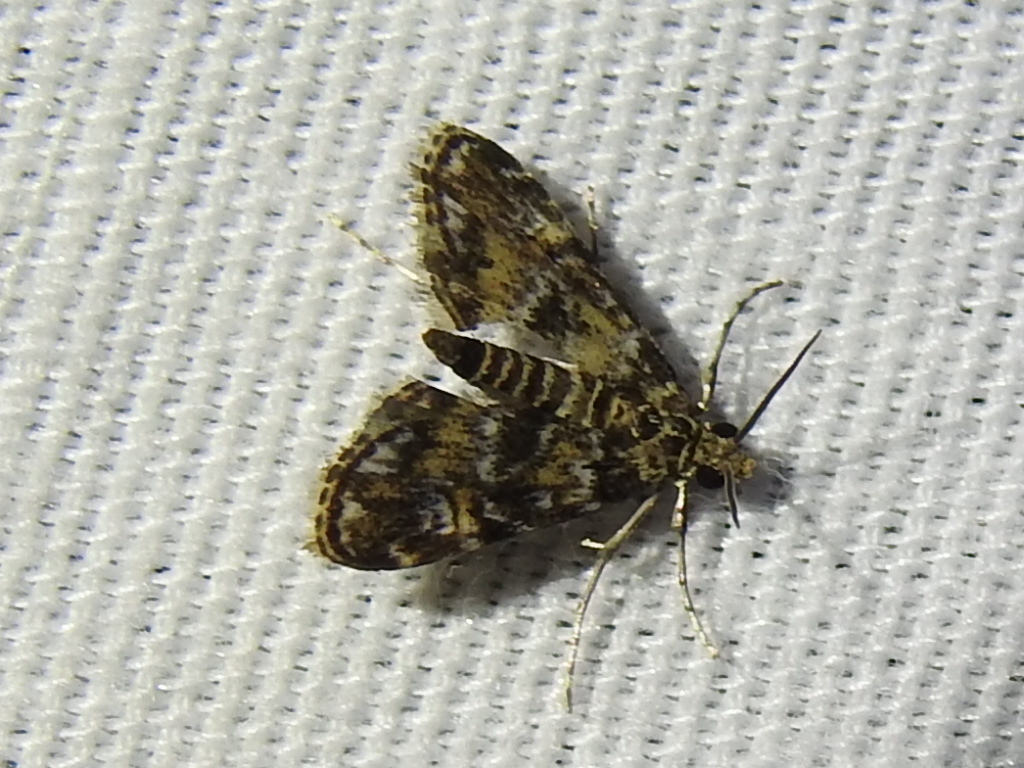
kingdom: Animalia
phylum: Arthropoda
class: Insecta
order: Lepidoptera
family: Crambidae
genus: Elophila
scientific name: Elophila obliteralis
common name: Waterlily leafcutter moth
